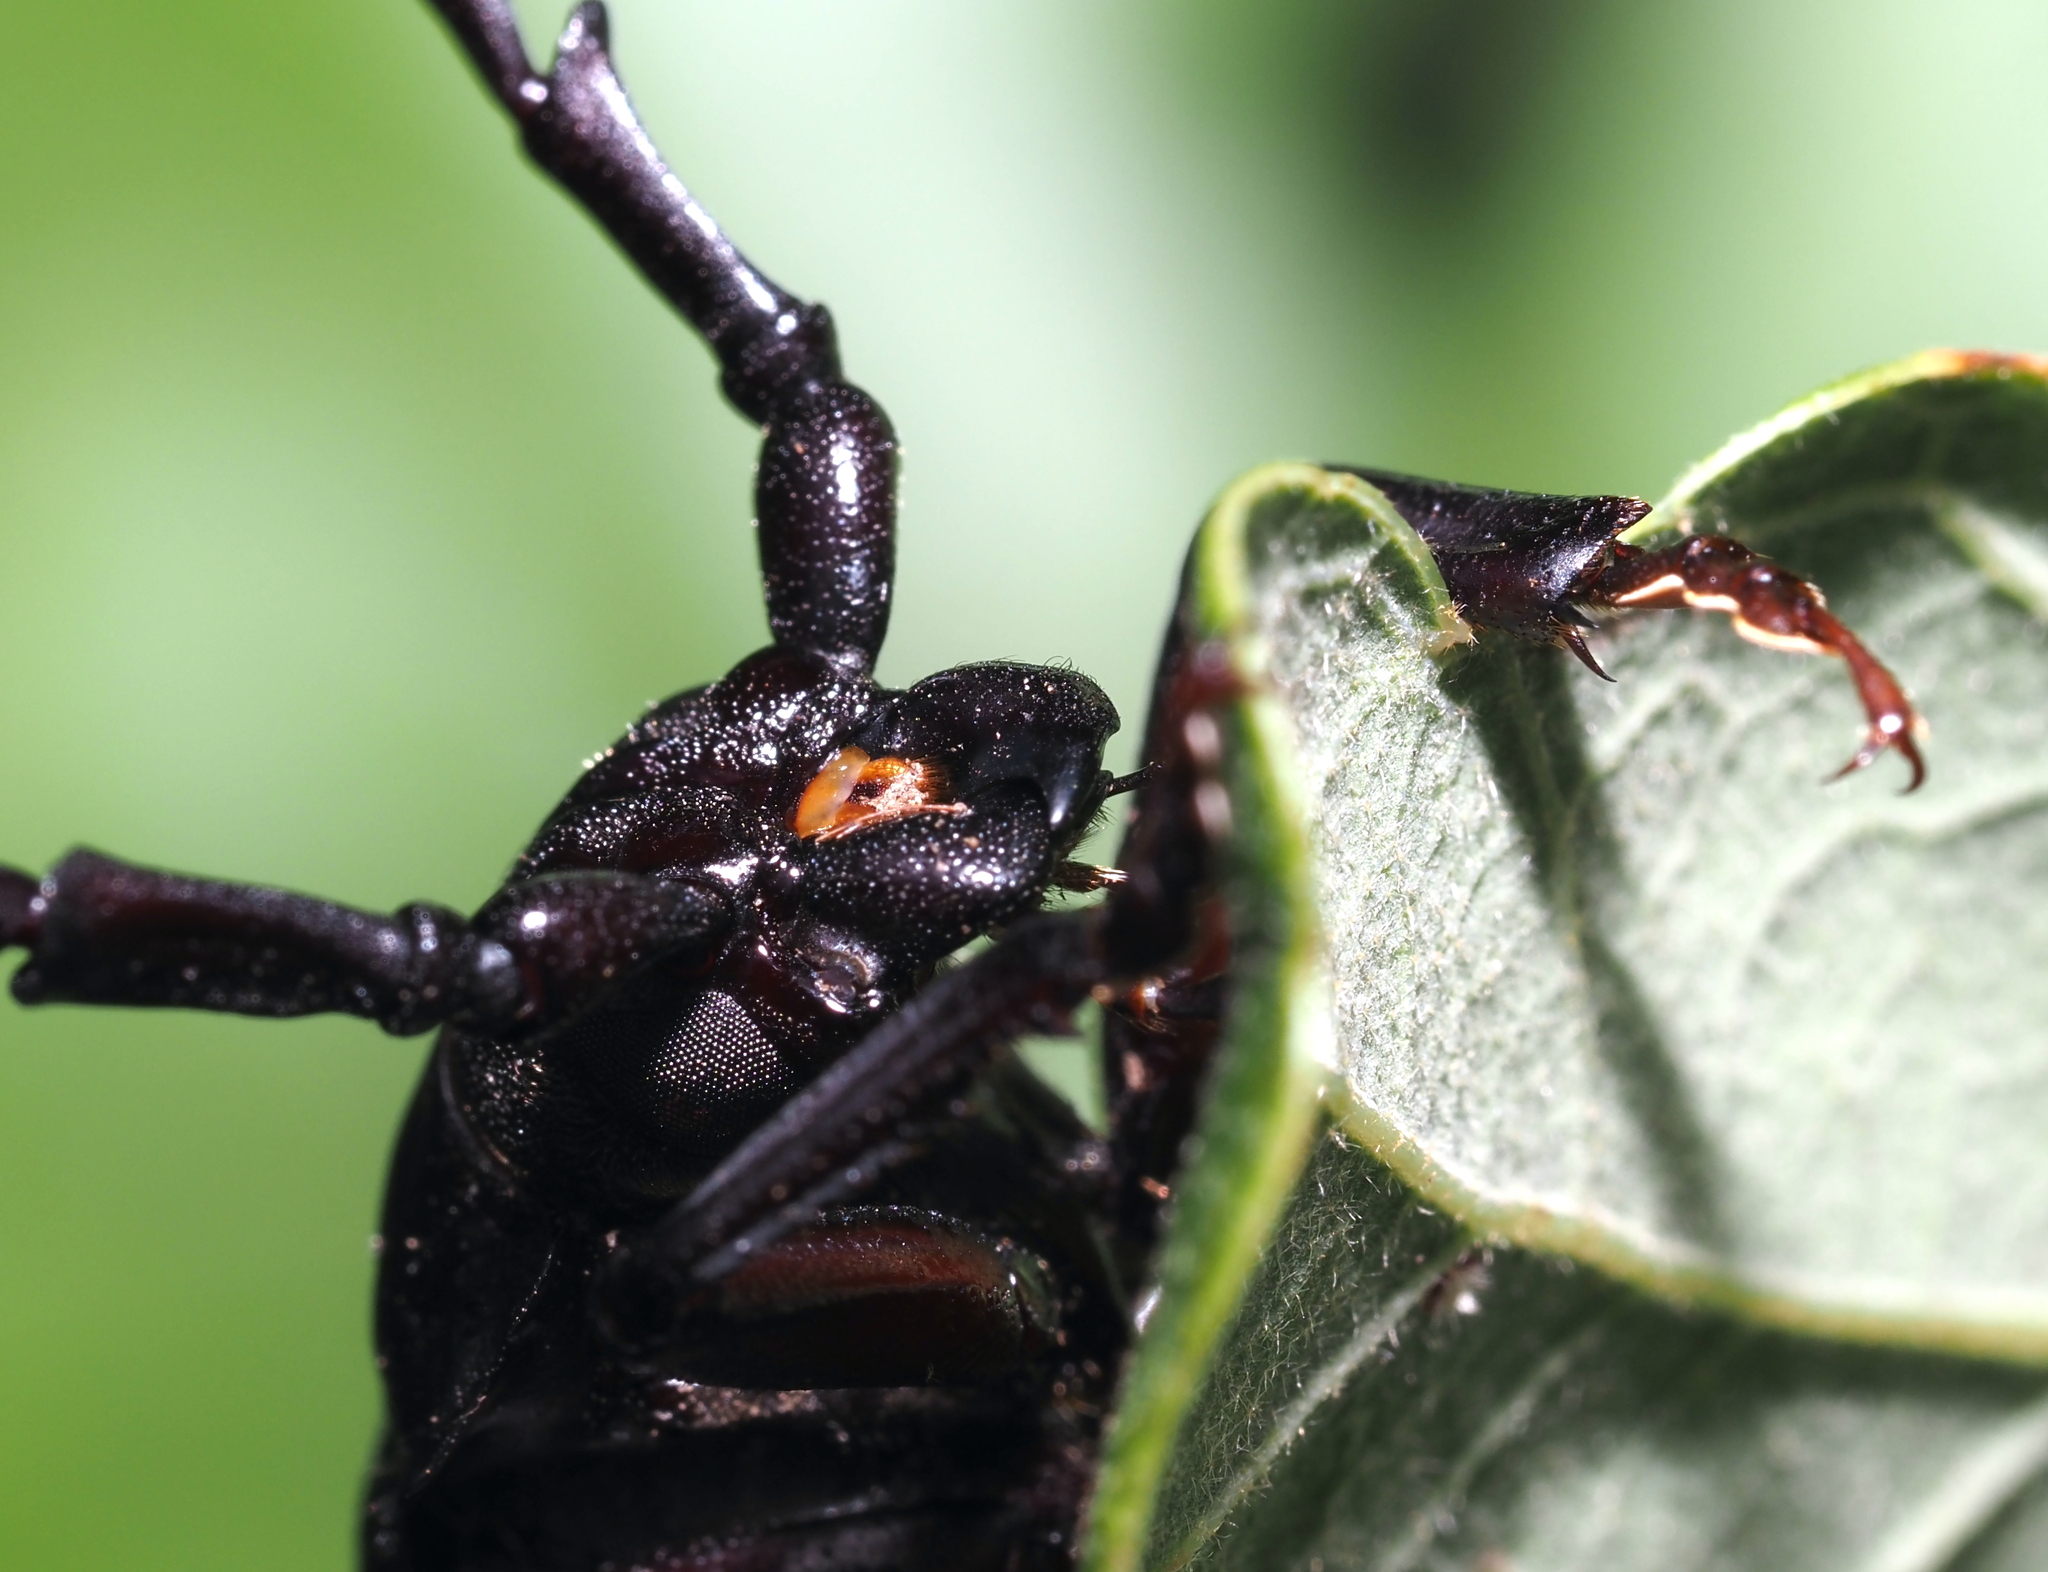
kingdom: Animalia
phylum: Arthropoda
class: Insecta
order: Coleoptera
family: Cerambycidae
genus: Prionus
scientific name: Prionus laticollis
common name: Broad necked prionus
